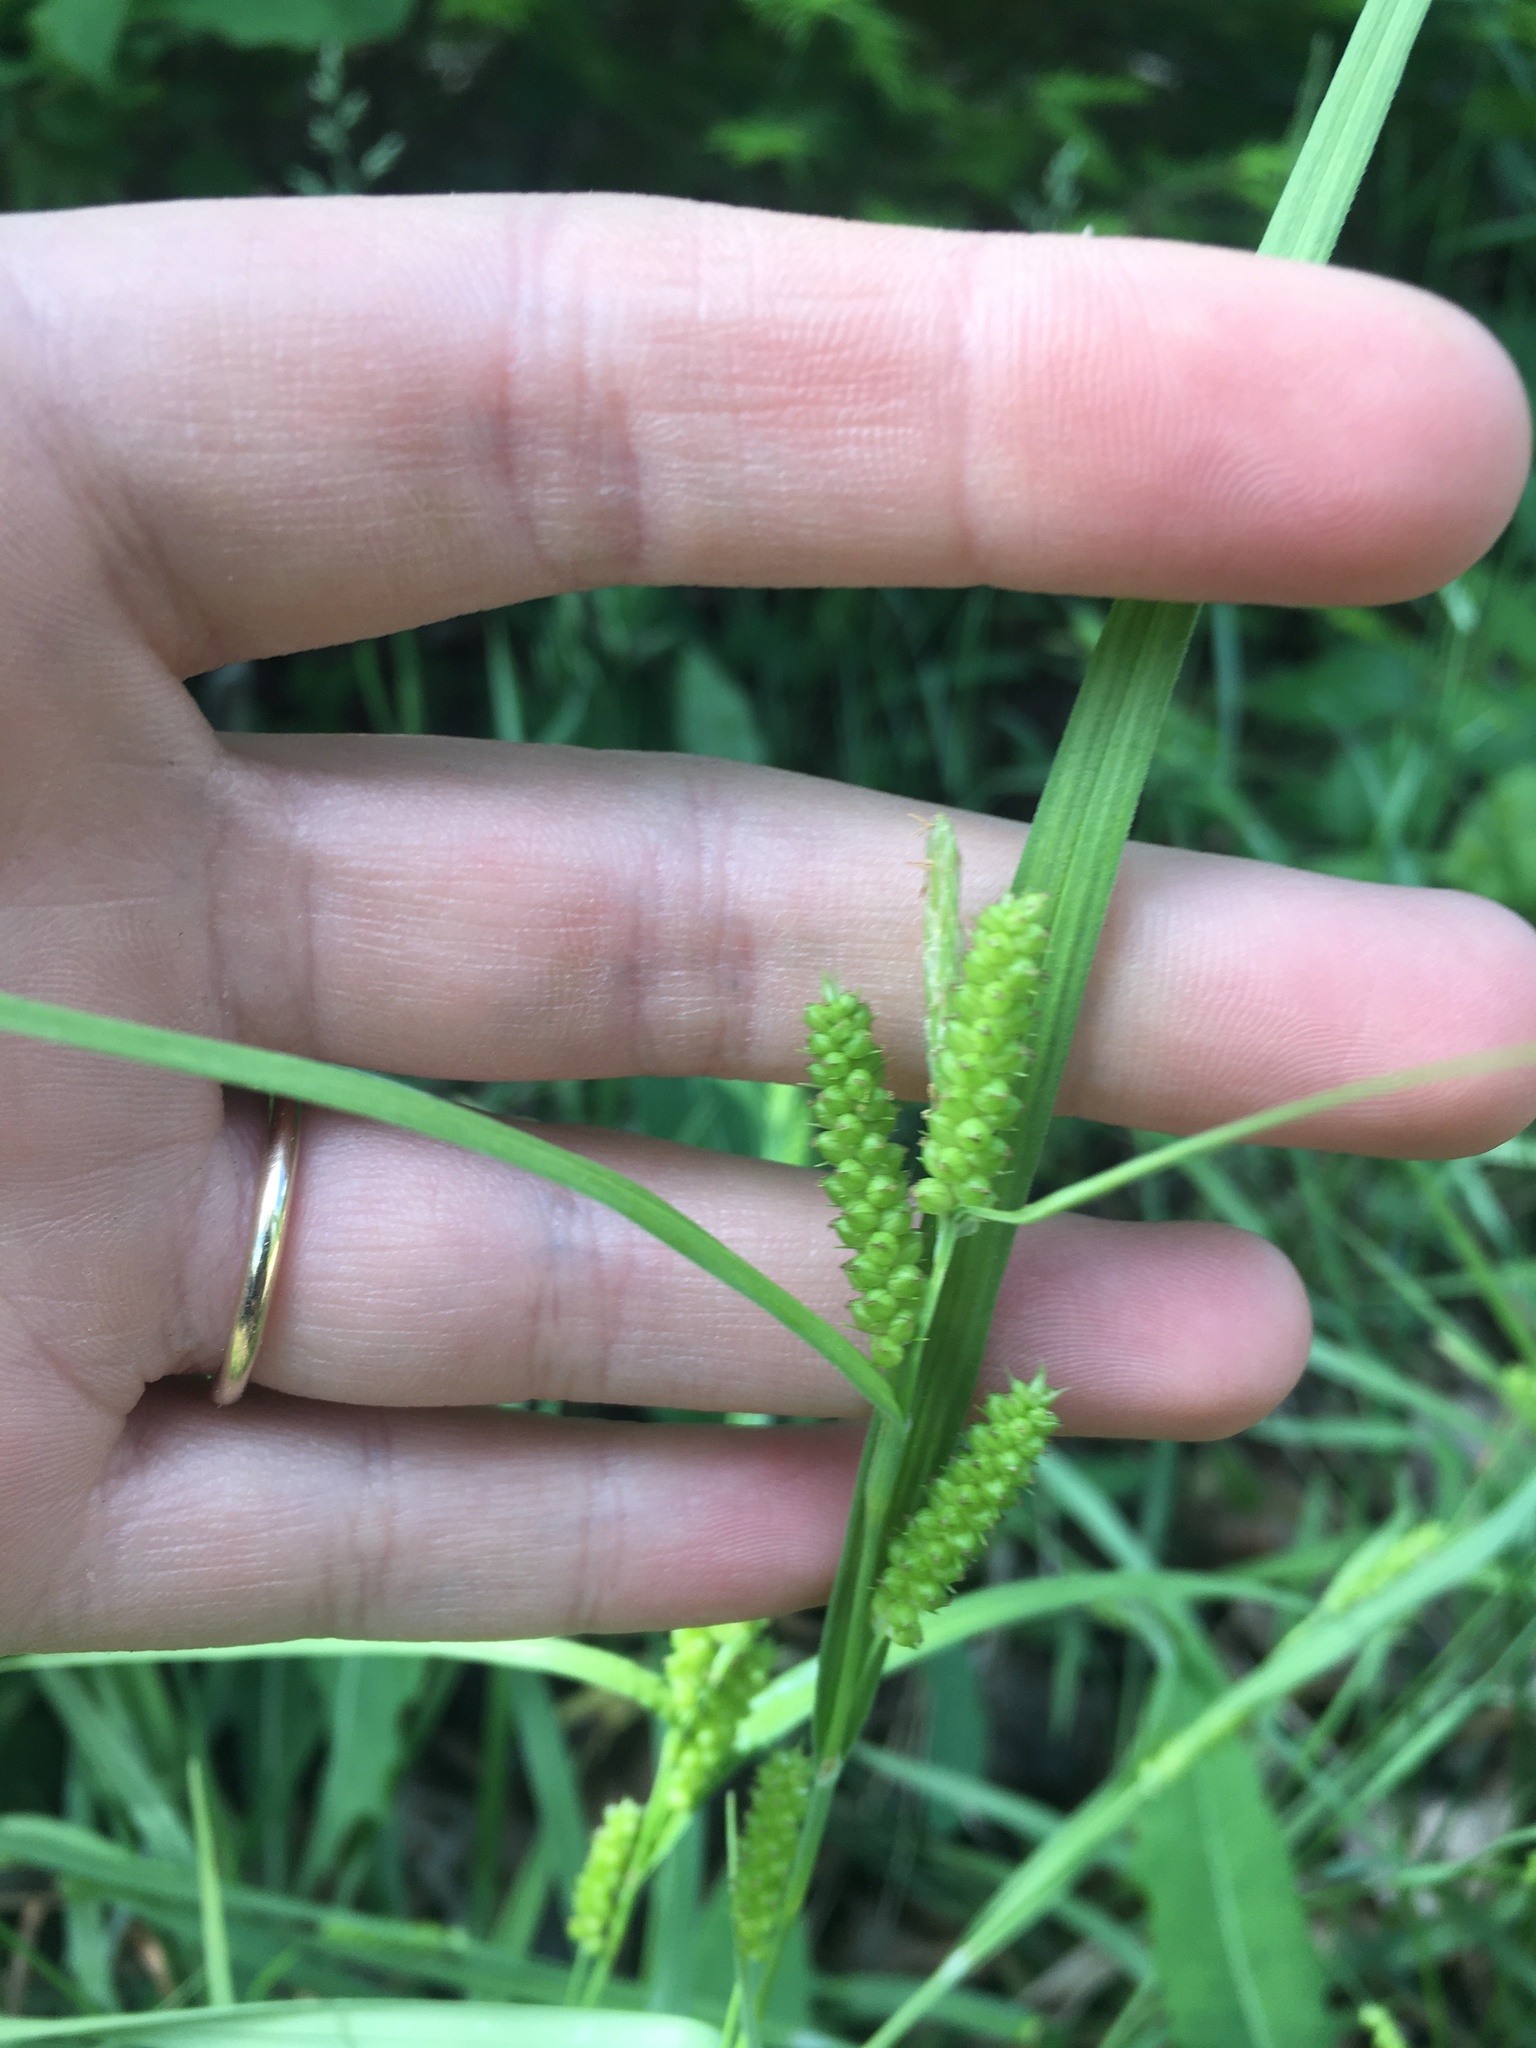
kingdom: Plantae
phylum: Tracheophyta
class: Liliopsida
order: Poales
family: Cyperaceae
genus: Carex
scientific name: Carex granularis
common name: Granular sedge
